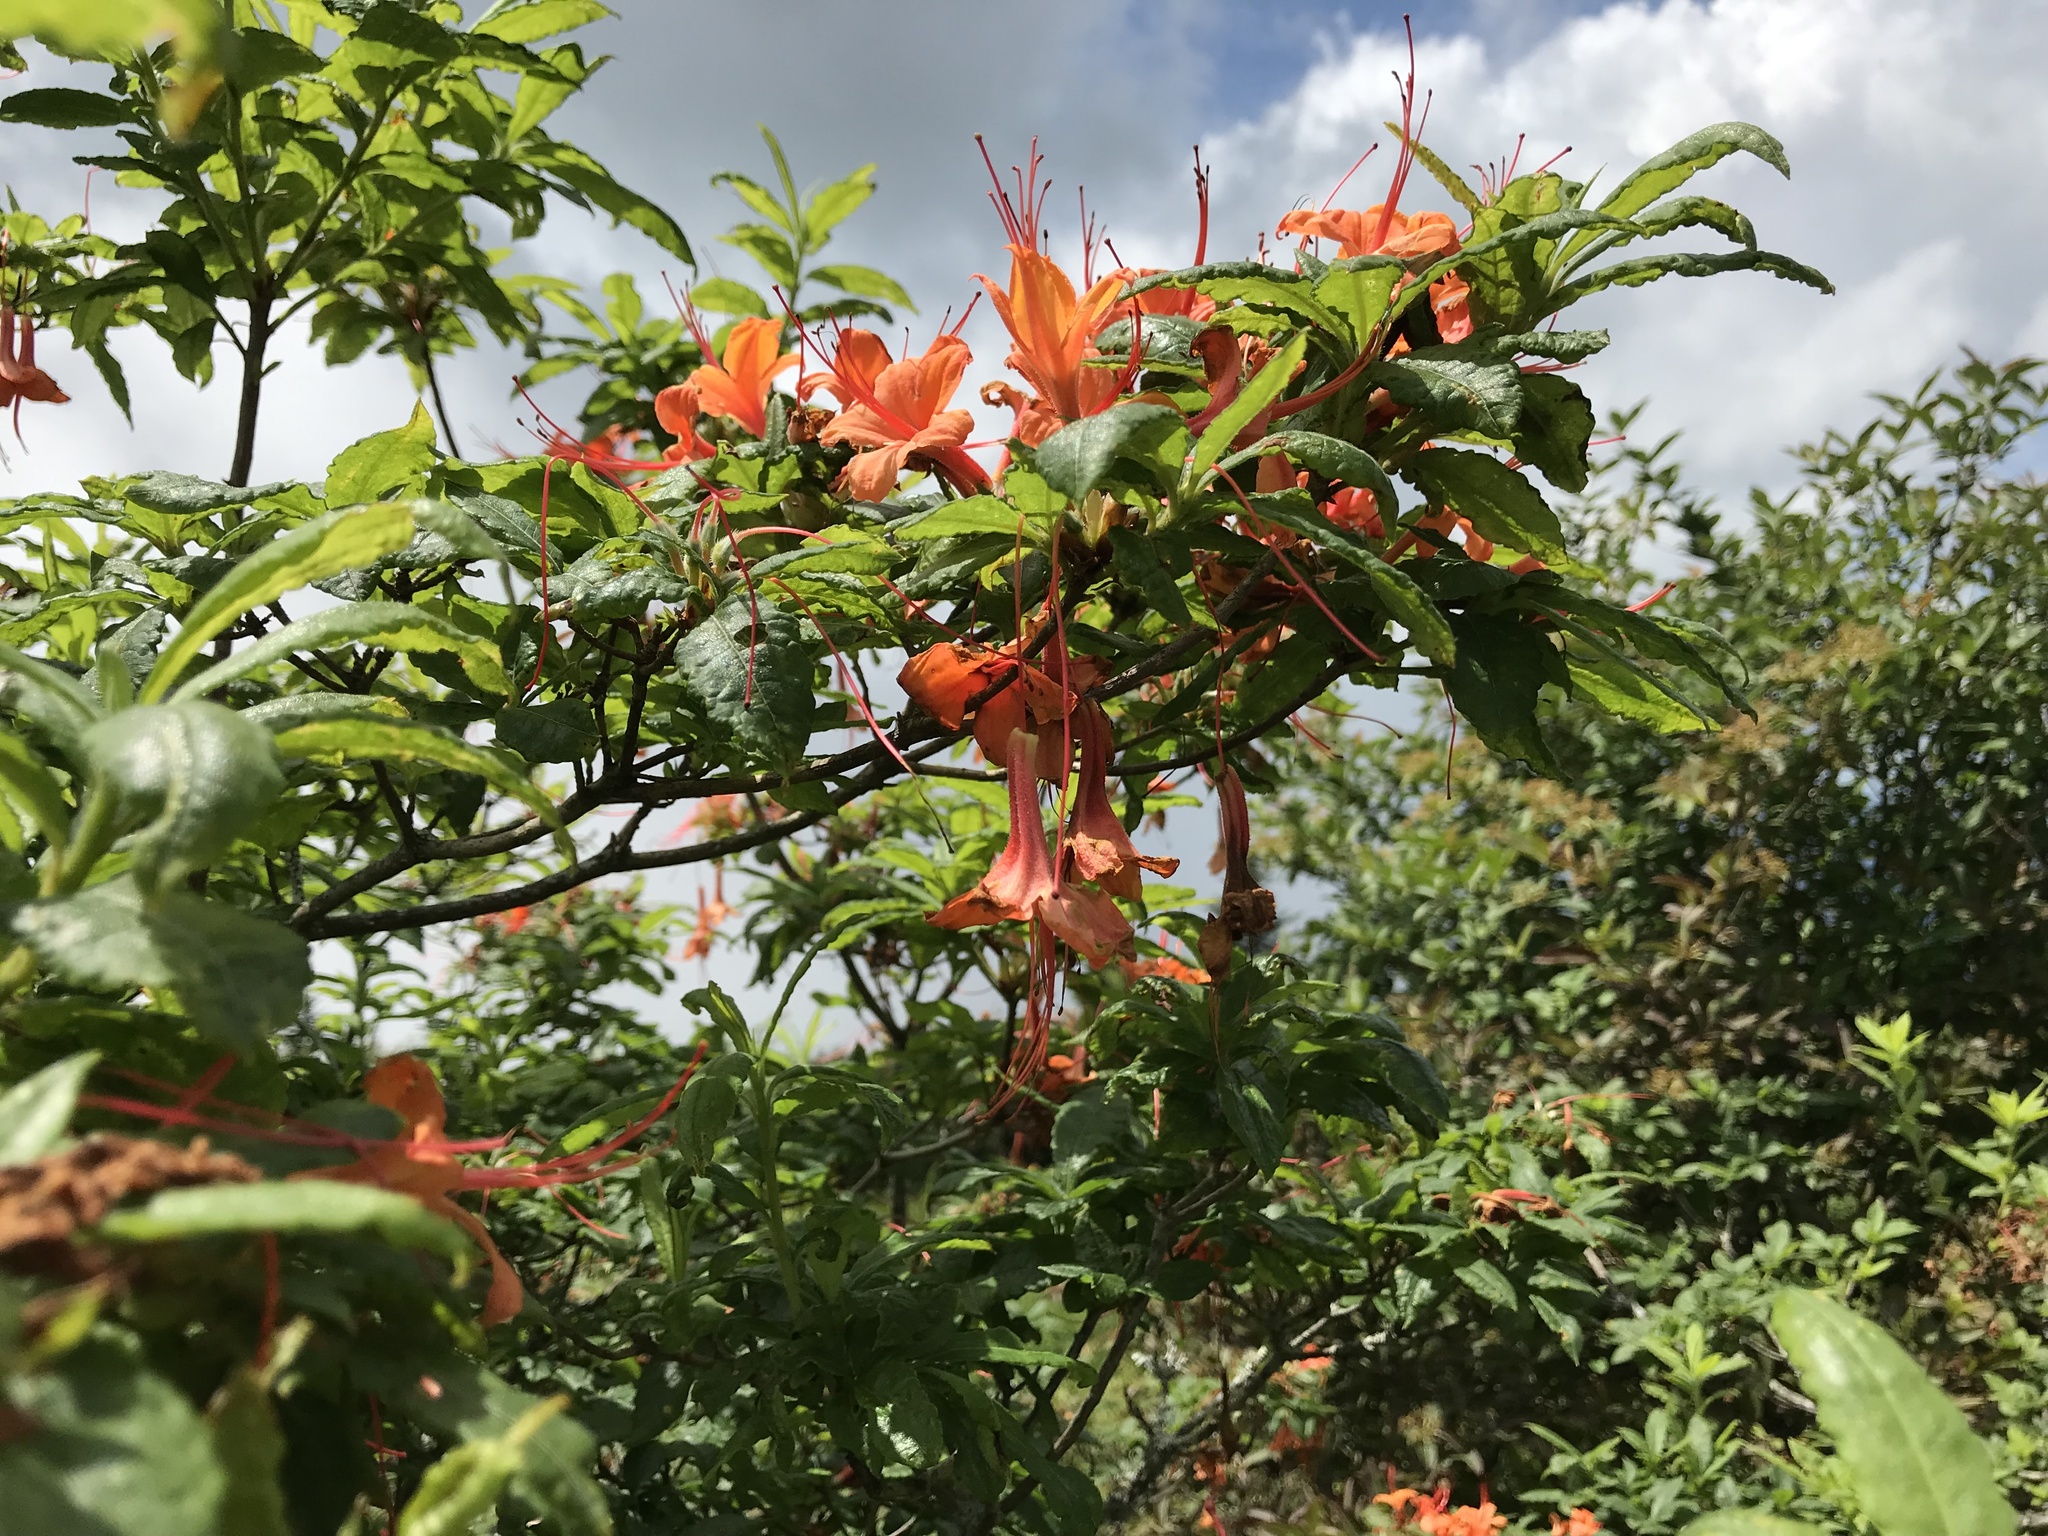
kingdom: Plantae
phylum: Tracheophyta
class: Magnoliopsida
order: Ericales
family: Ericaceae
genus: Rhododendron
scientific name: Rhododendron calendulaceum
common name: Flame azalea
